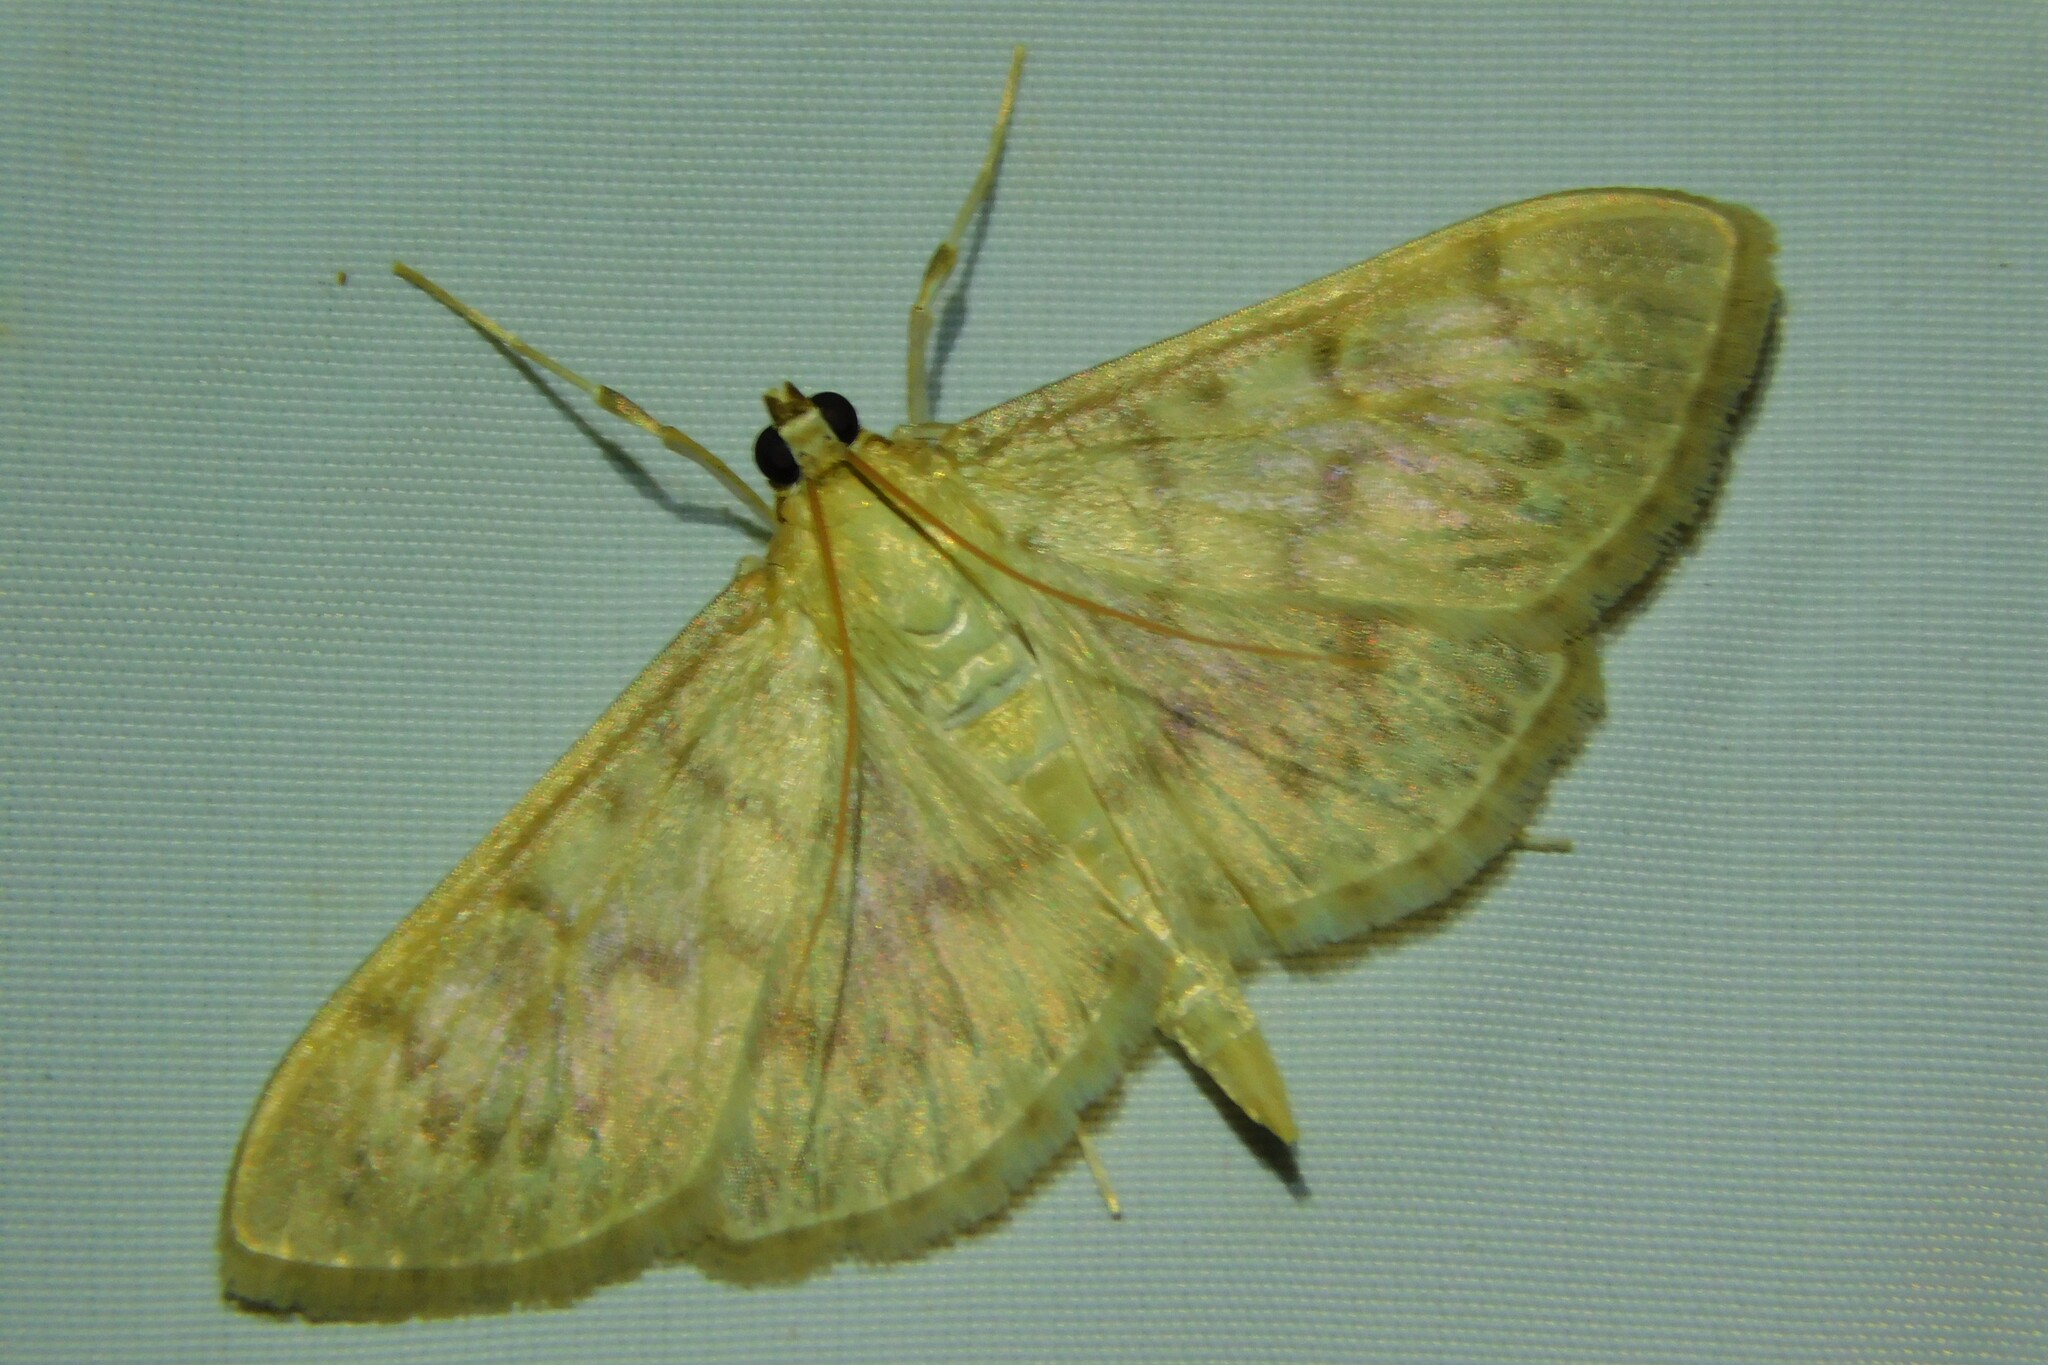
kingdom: Animalia
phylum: Arthropoda
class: Insecta
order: Lepidoptera
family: Crambidae
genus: Patania
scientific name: Patania ruralis
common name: Mother of pearl
